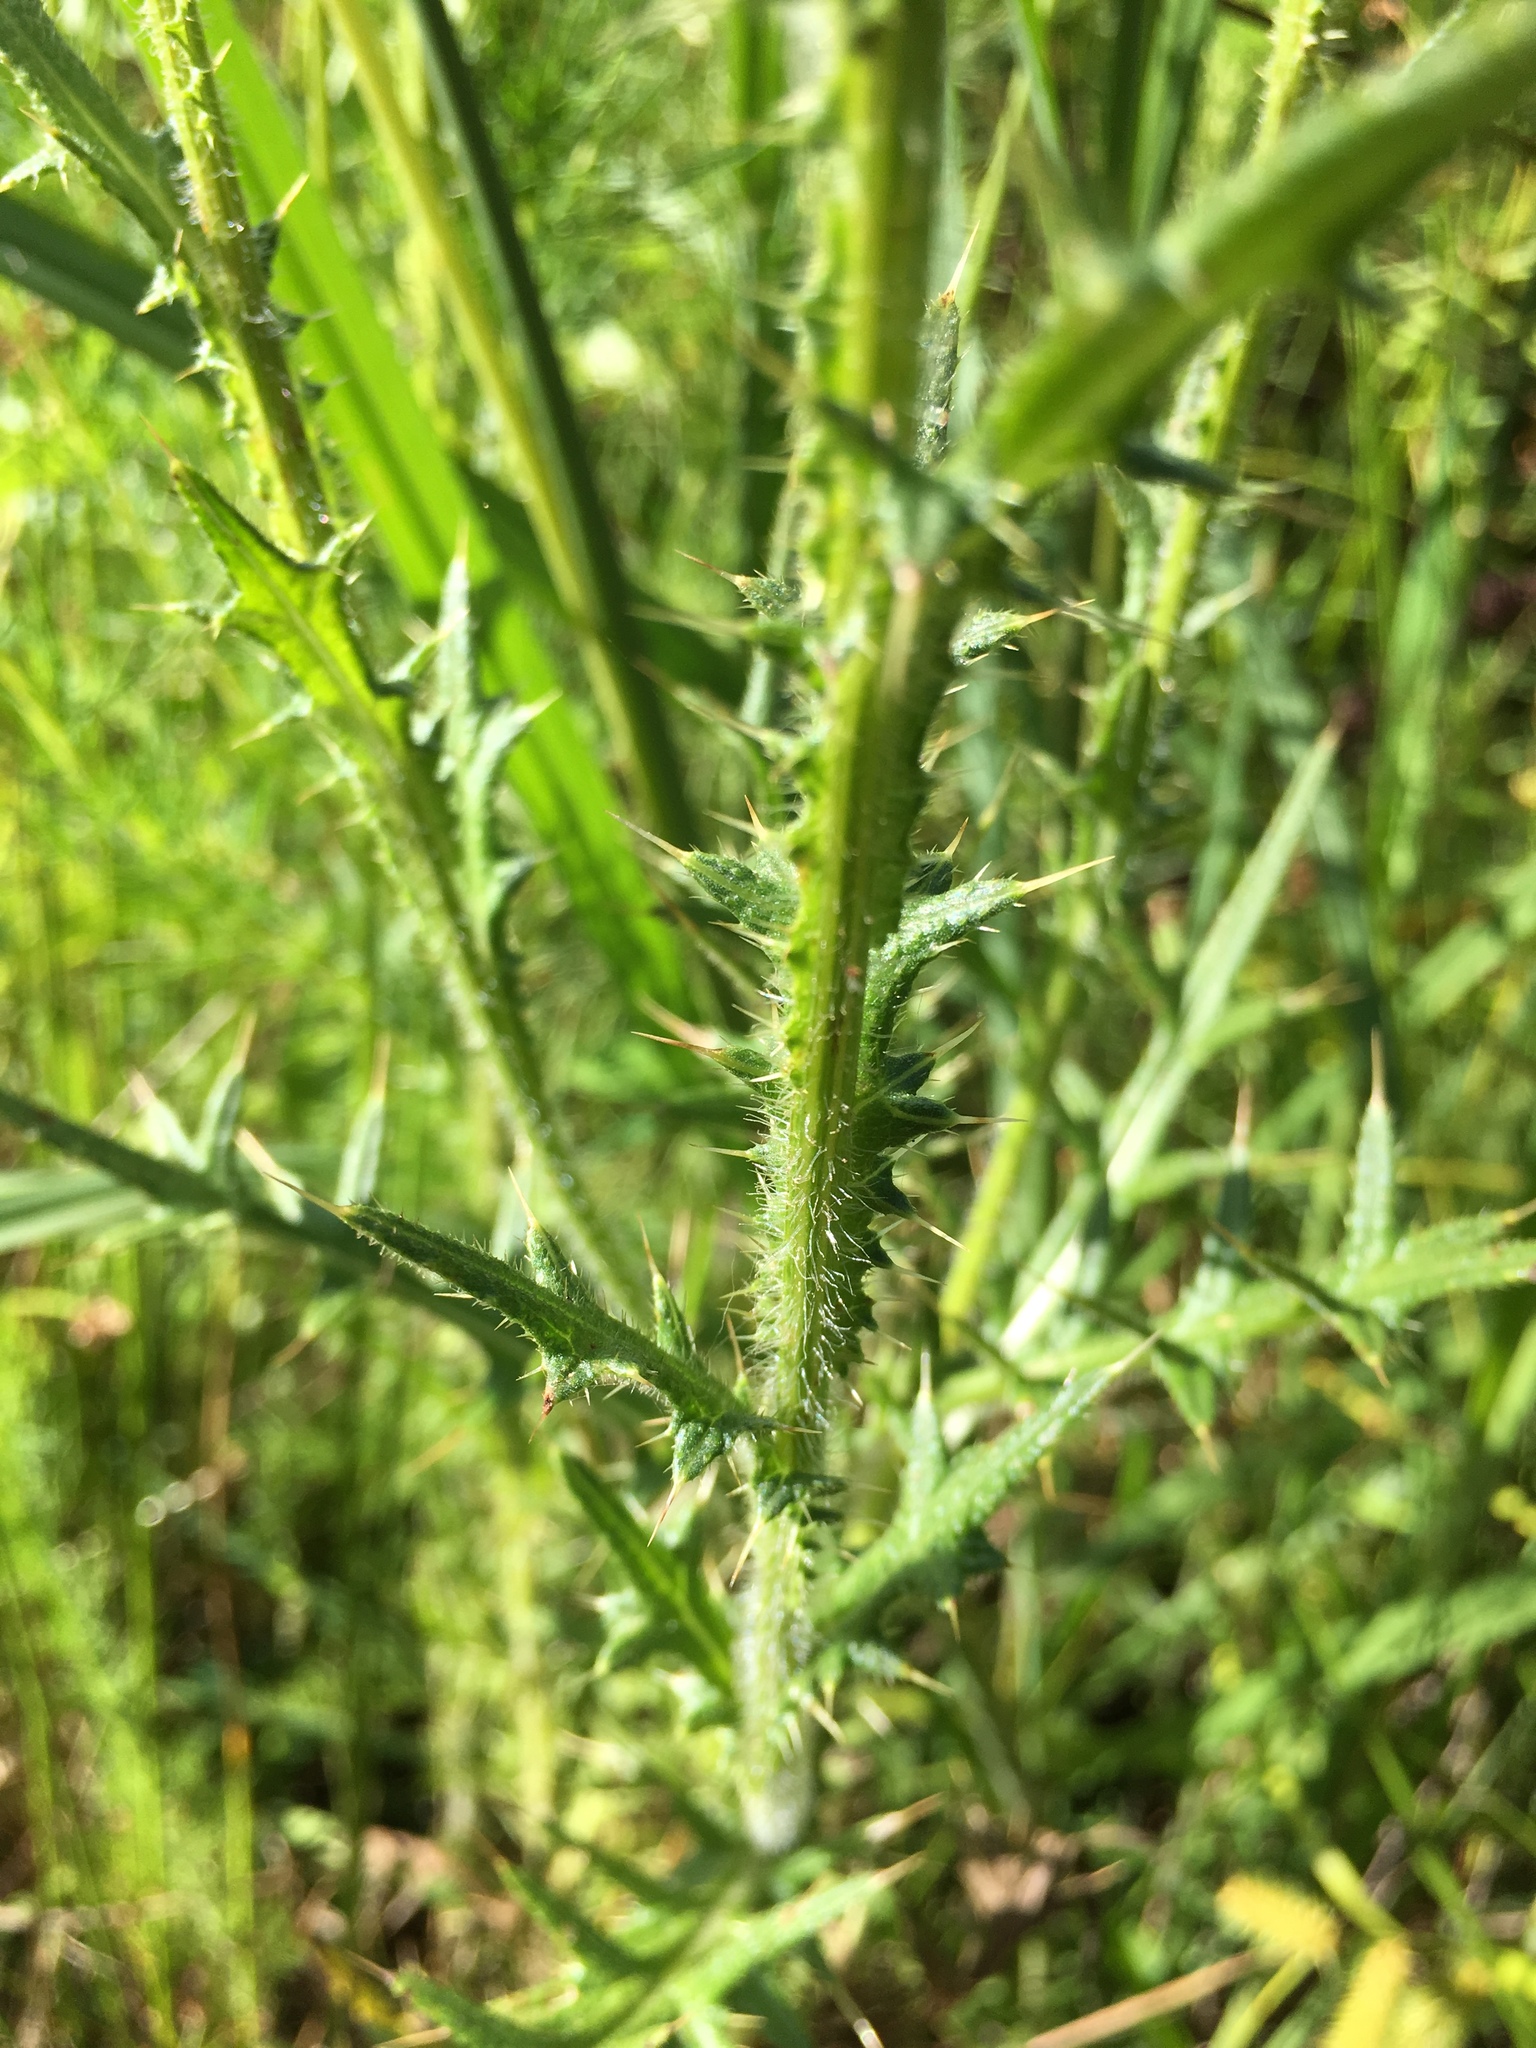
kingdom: Plantae
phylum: Tracheophyta
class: Magnoliopsida
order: Asterales
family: Asteraceae
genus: Cirsium
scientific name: Cirsium vulgare
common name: Bull thistle
